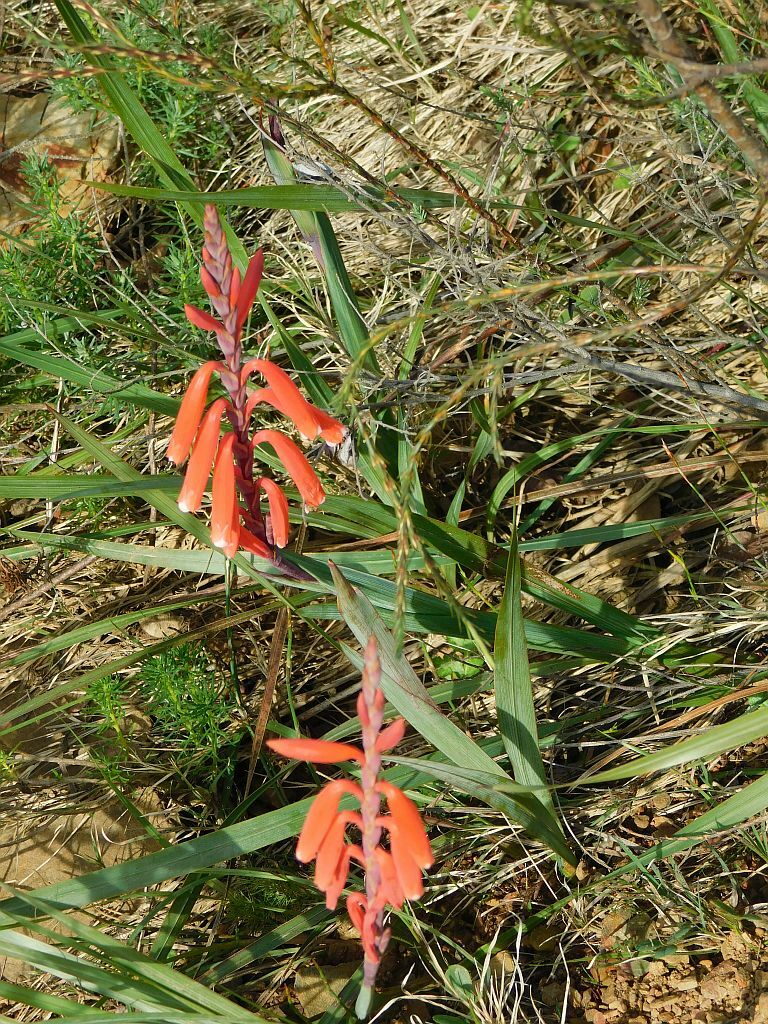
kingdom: Plantae
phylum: Tracheophyta
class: Liliopsida
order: Asparagales
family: Iridaceae
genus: Watsonia
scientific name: Watsonia aletroides
